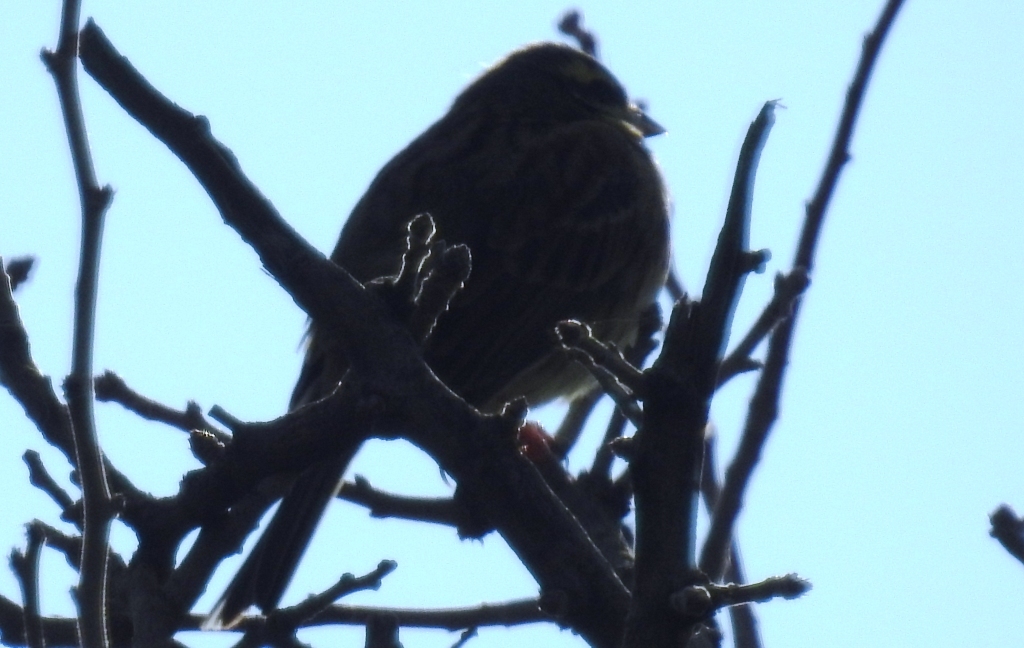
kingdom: Animalia
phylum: Chordata
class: Aves
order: Passeriformes
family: Emberizidae
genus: Emberiza
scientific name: Emberiza cirlus
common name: Cirl bunting
